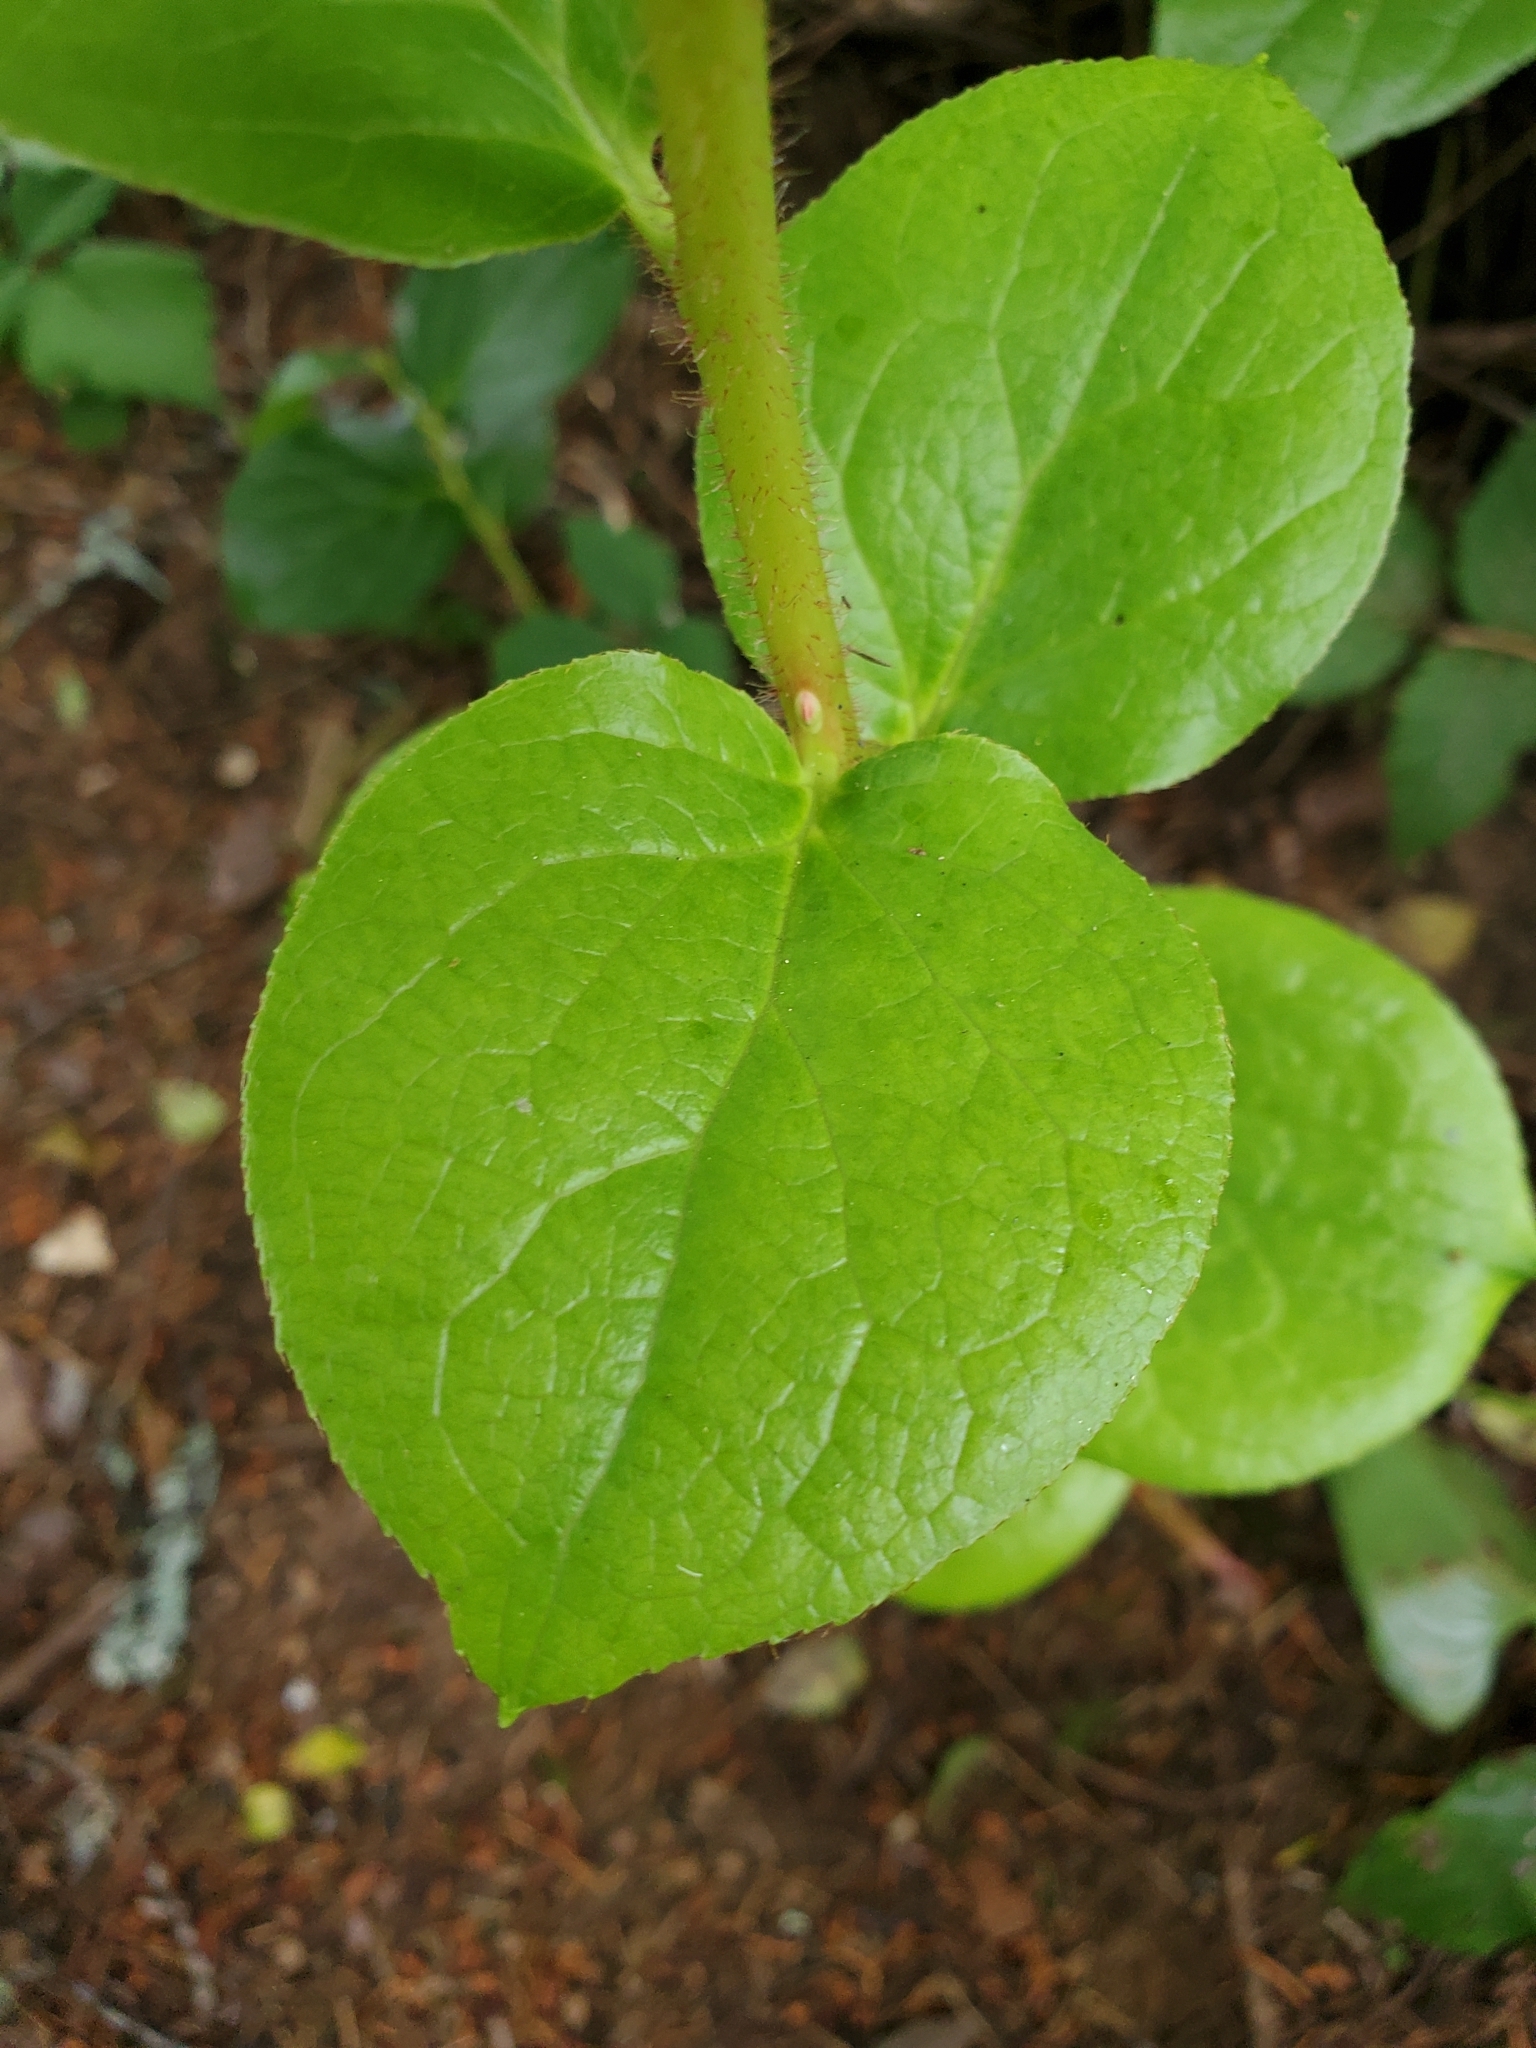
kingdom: Plantae
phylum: Tracheophyta
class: Magnoliopsida
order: Ericales
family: Ericaceae
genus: Gaultheria
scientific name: Gaultheria shallon
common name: Shallon
